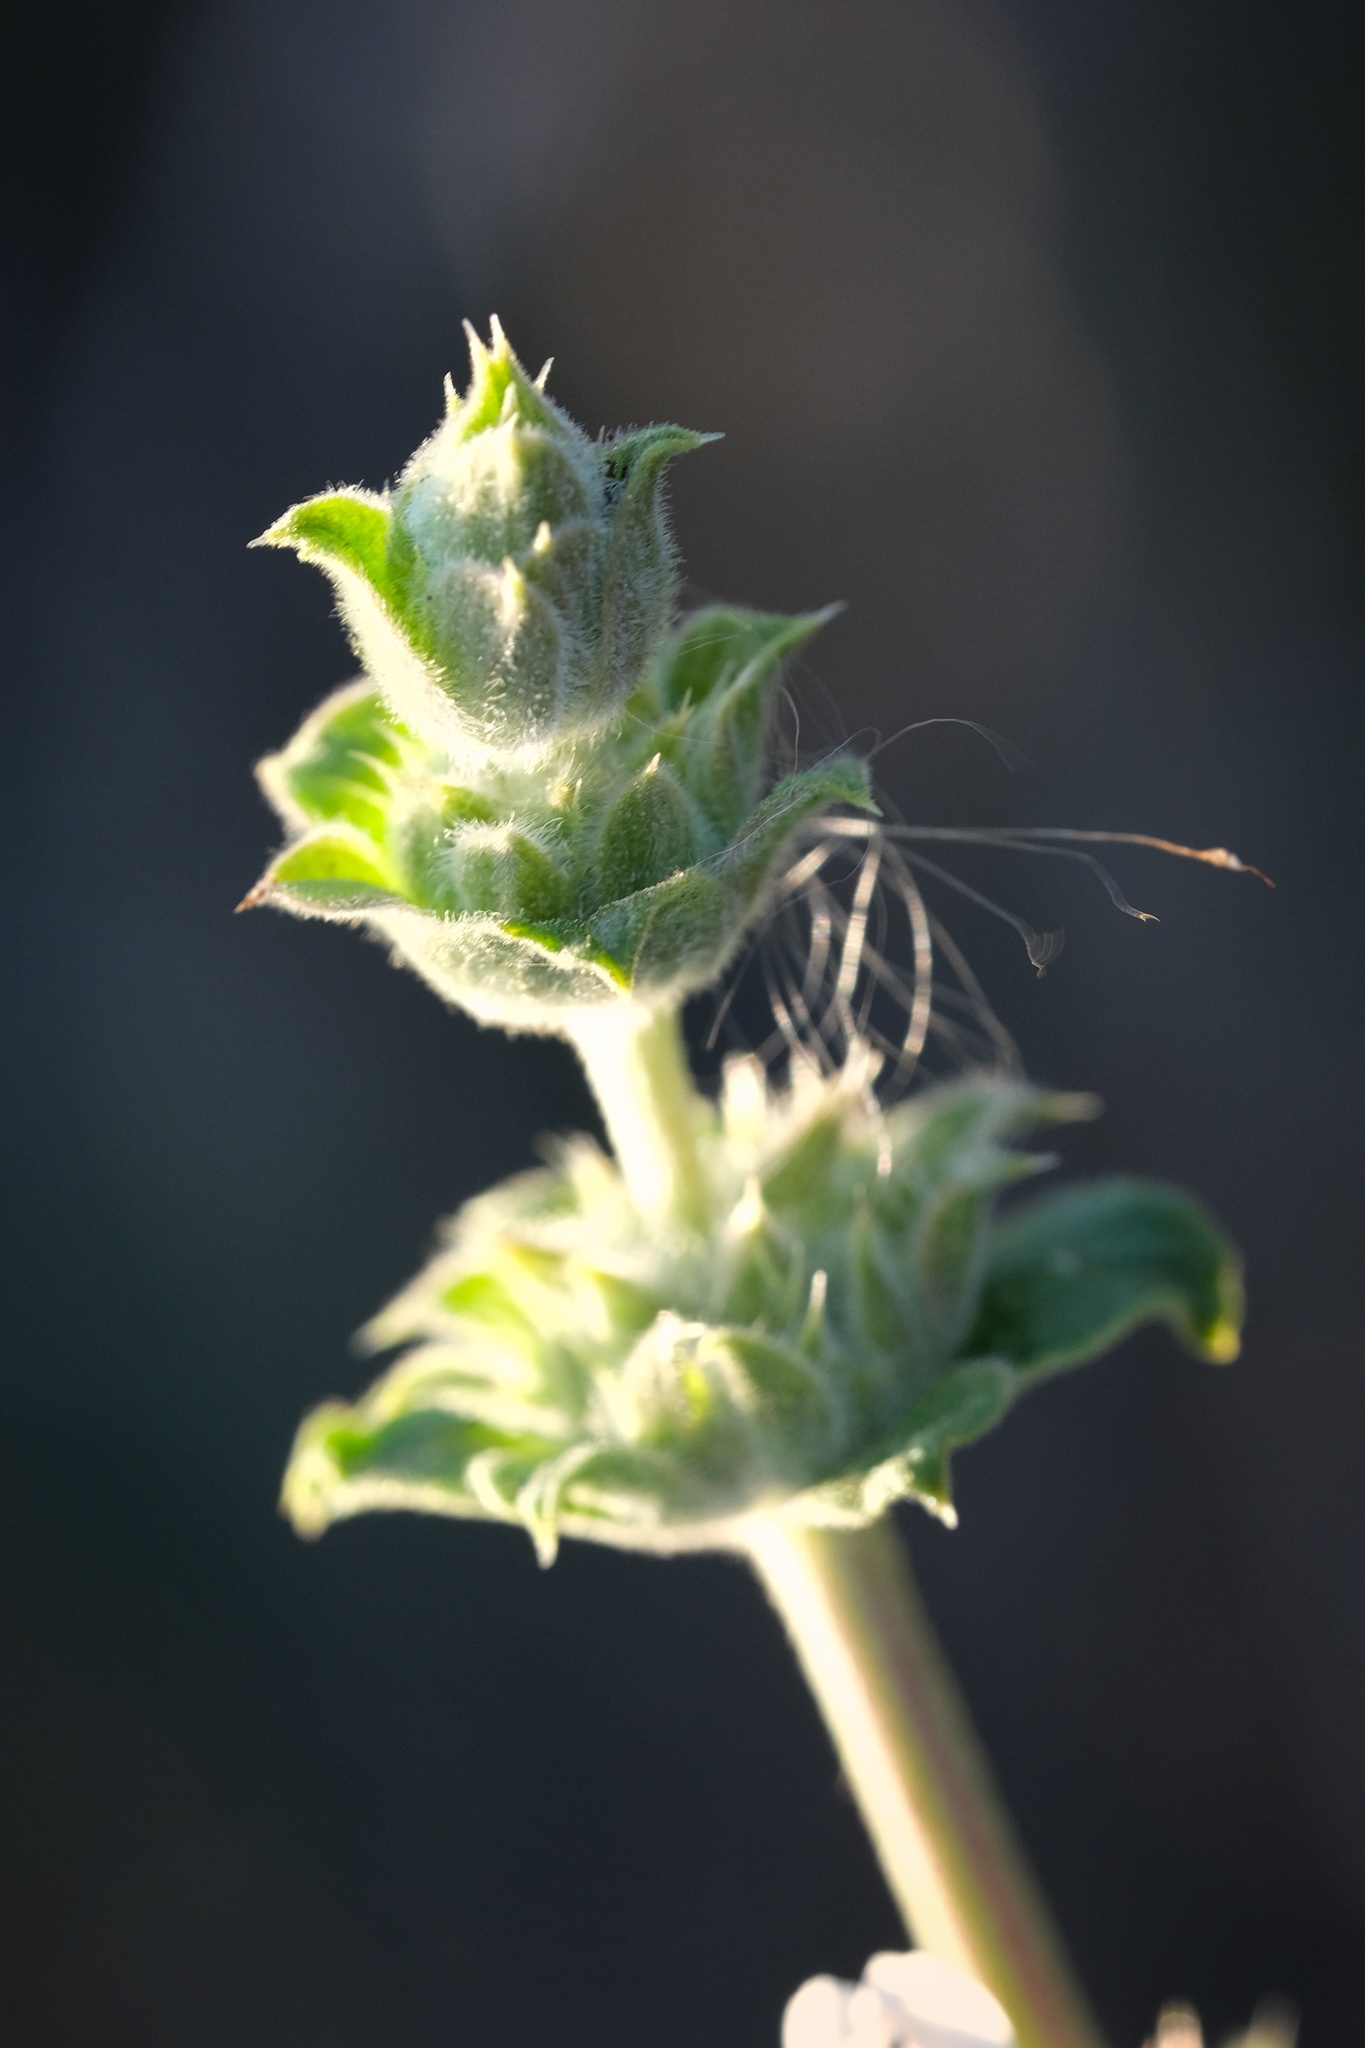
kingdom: Plantae
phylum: Tracheophyta
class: Magnoliopsida
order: Lamiales
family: Lamiaceae
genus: Salvia
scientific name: Salvia mellifera
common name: Black sage
